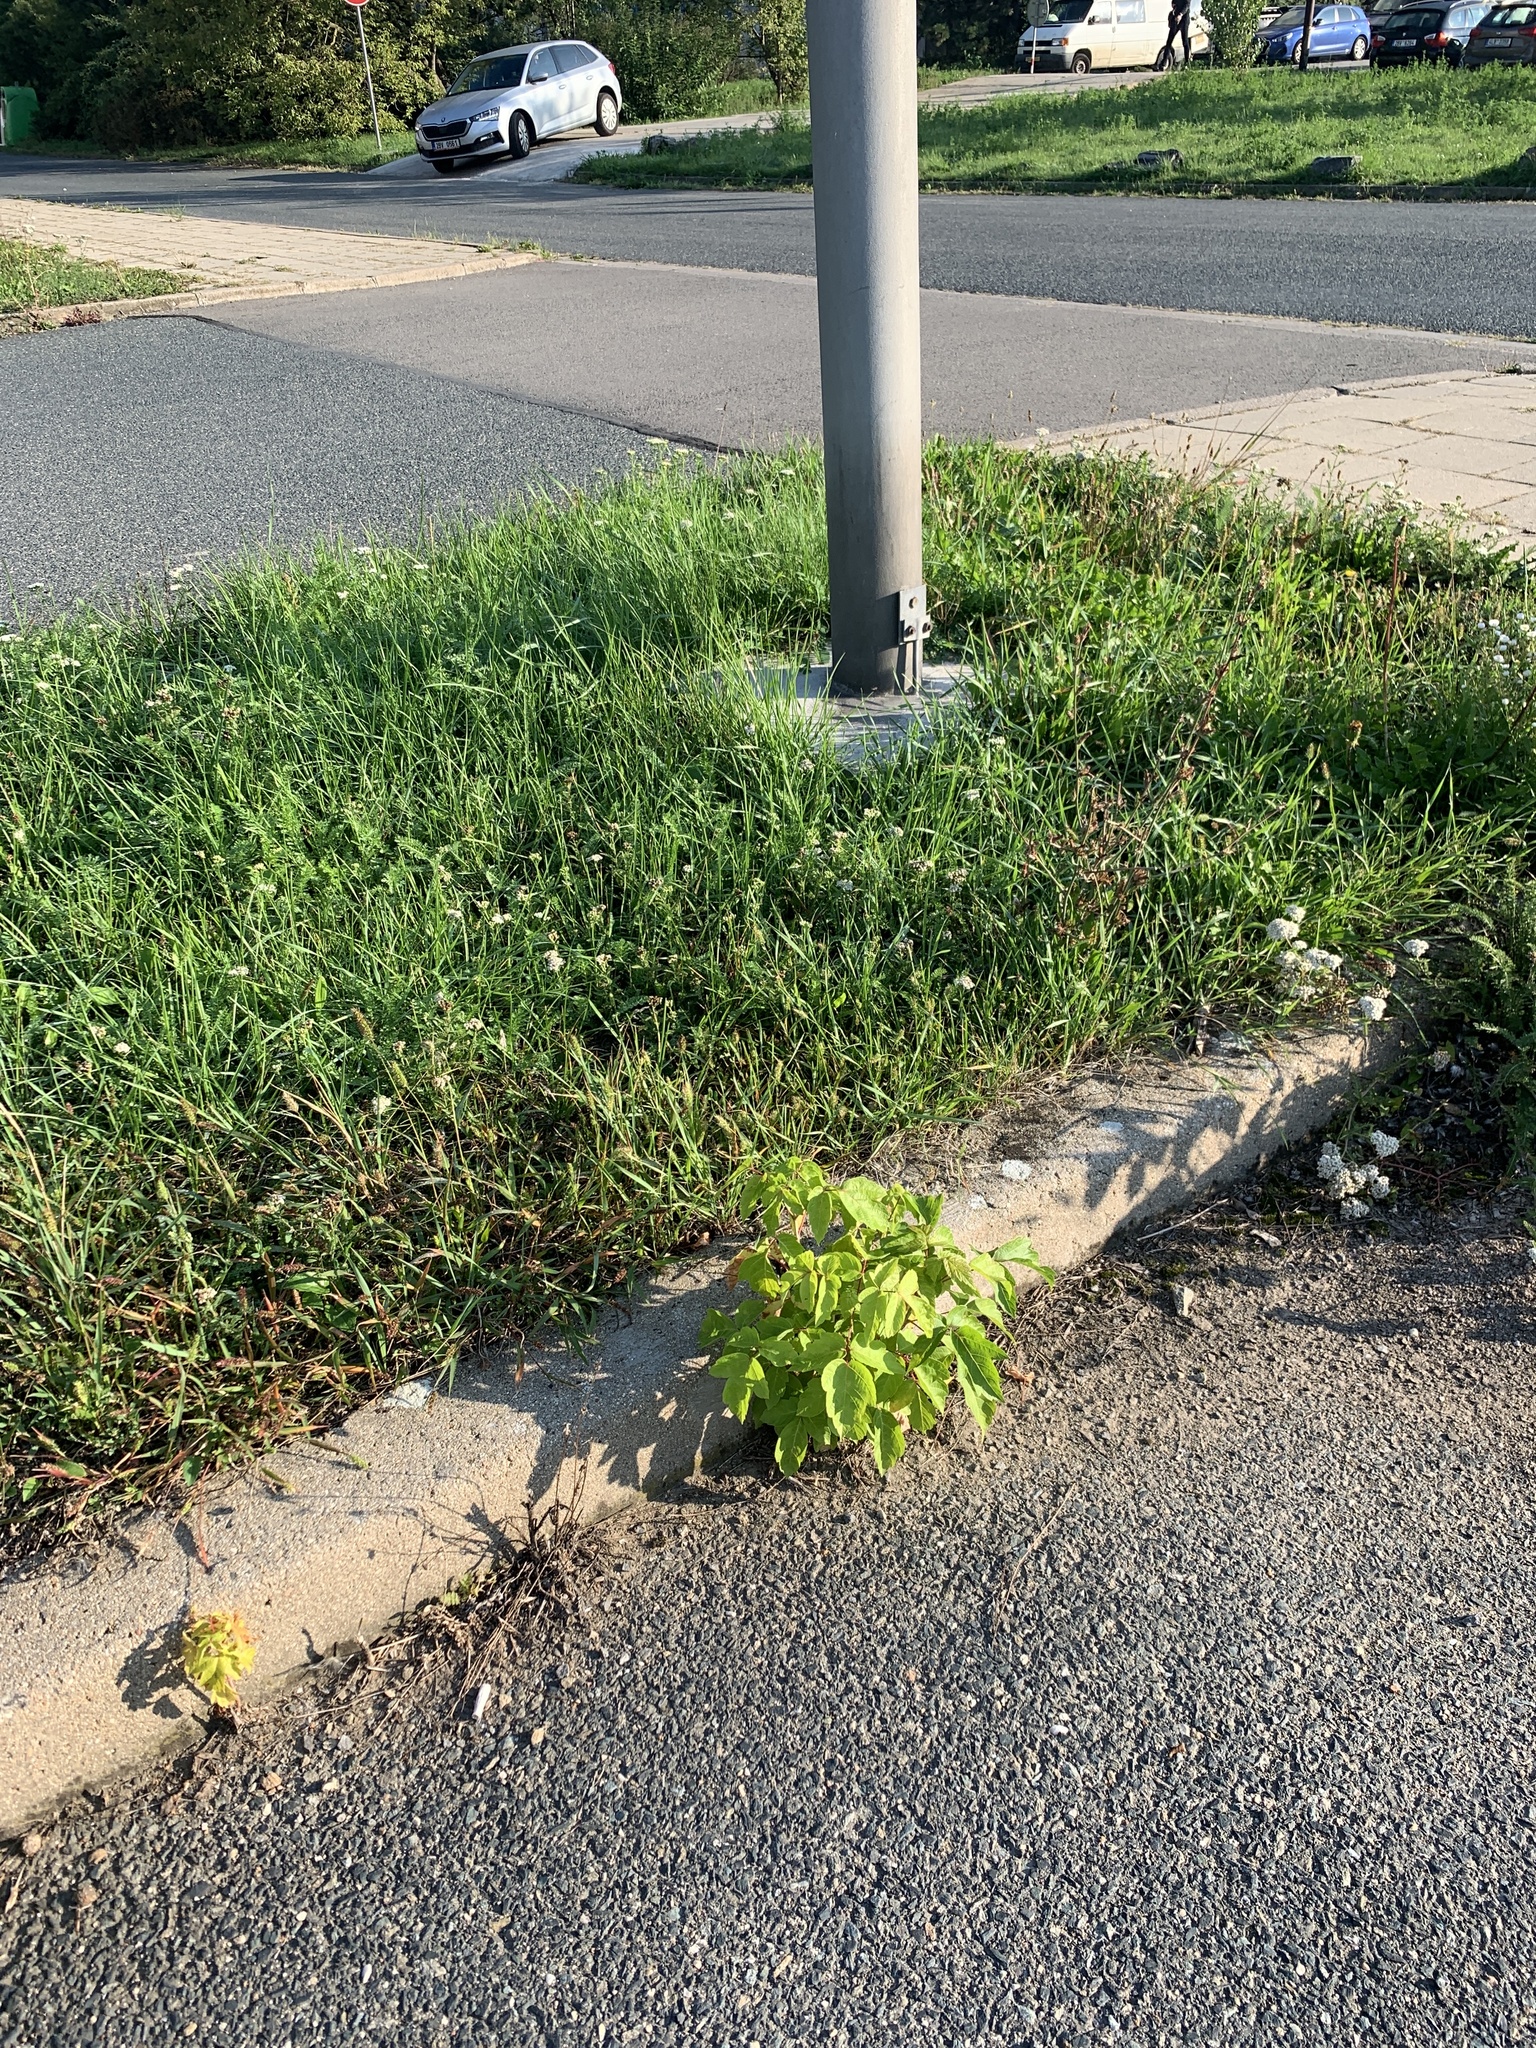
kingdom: Plantae
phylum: Tracheophyta
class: Magnoliopsida
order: Sapindales
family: Sapindaceae
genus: Acer
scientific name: Acer negundo
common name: Ashleaf maple
